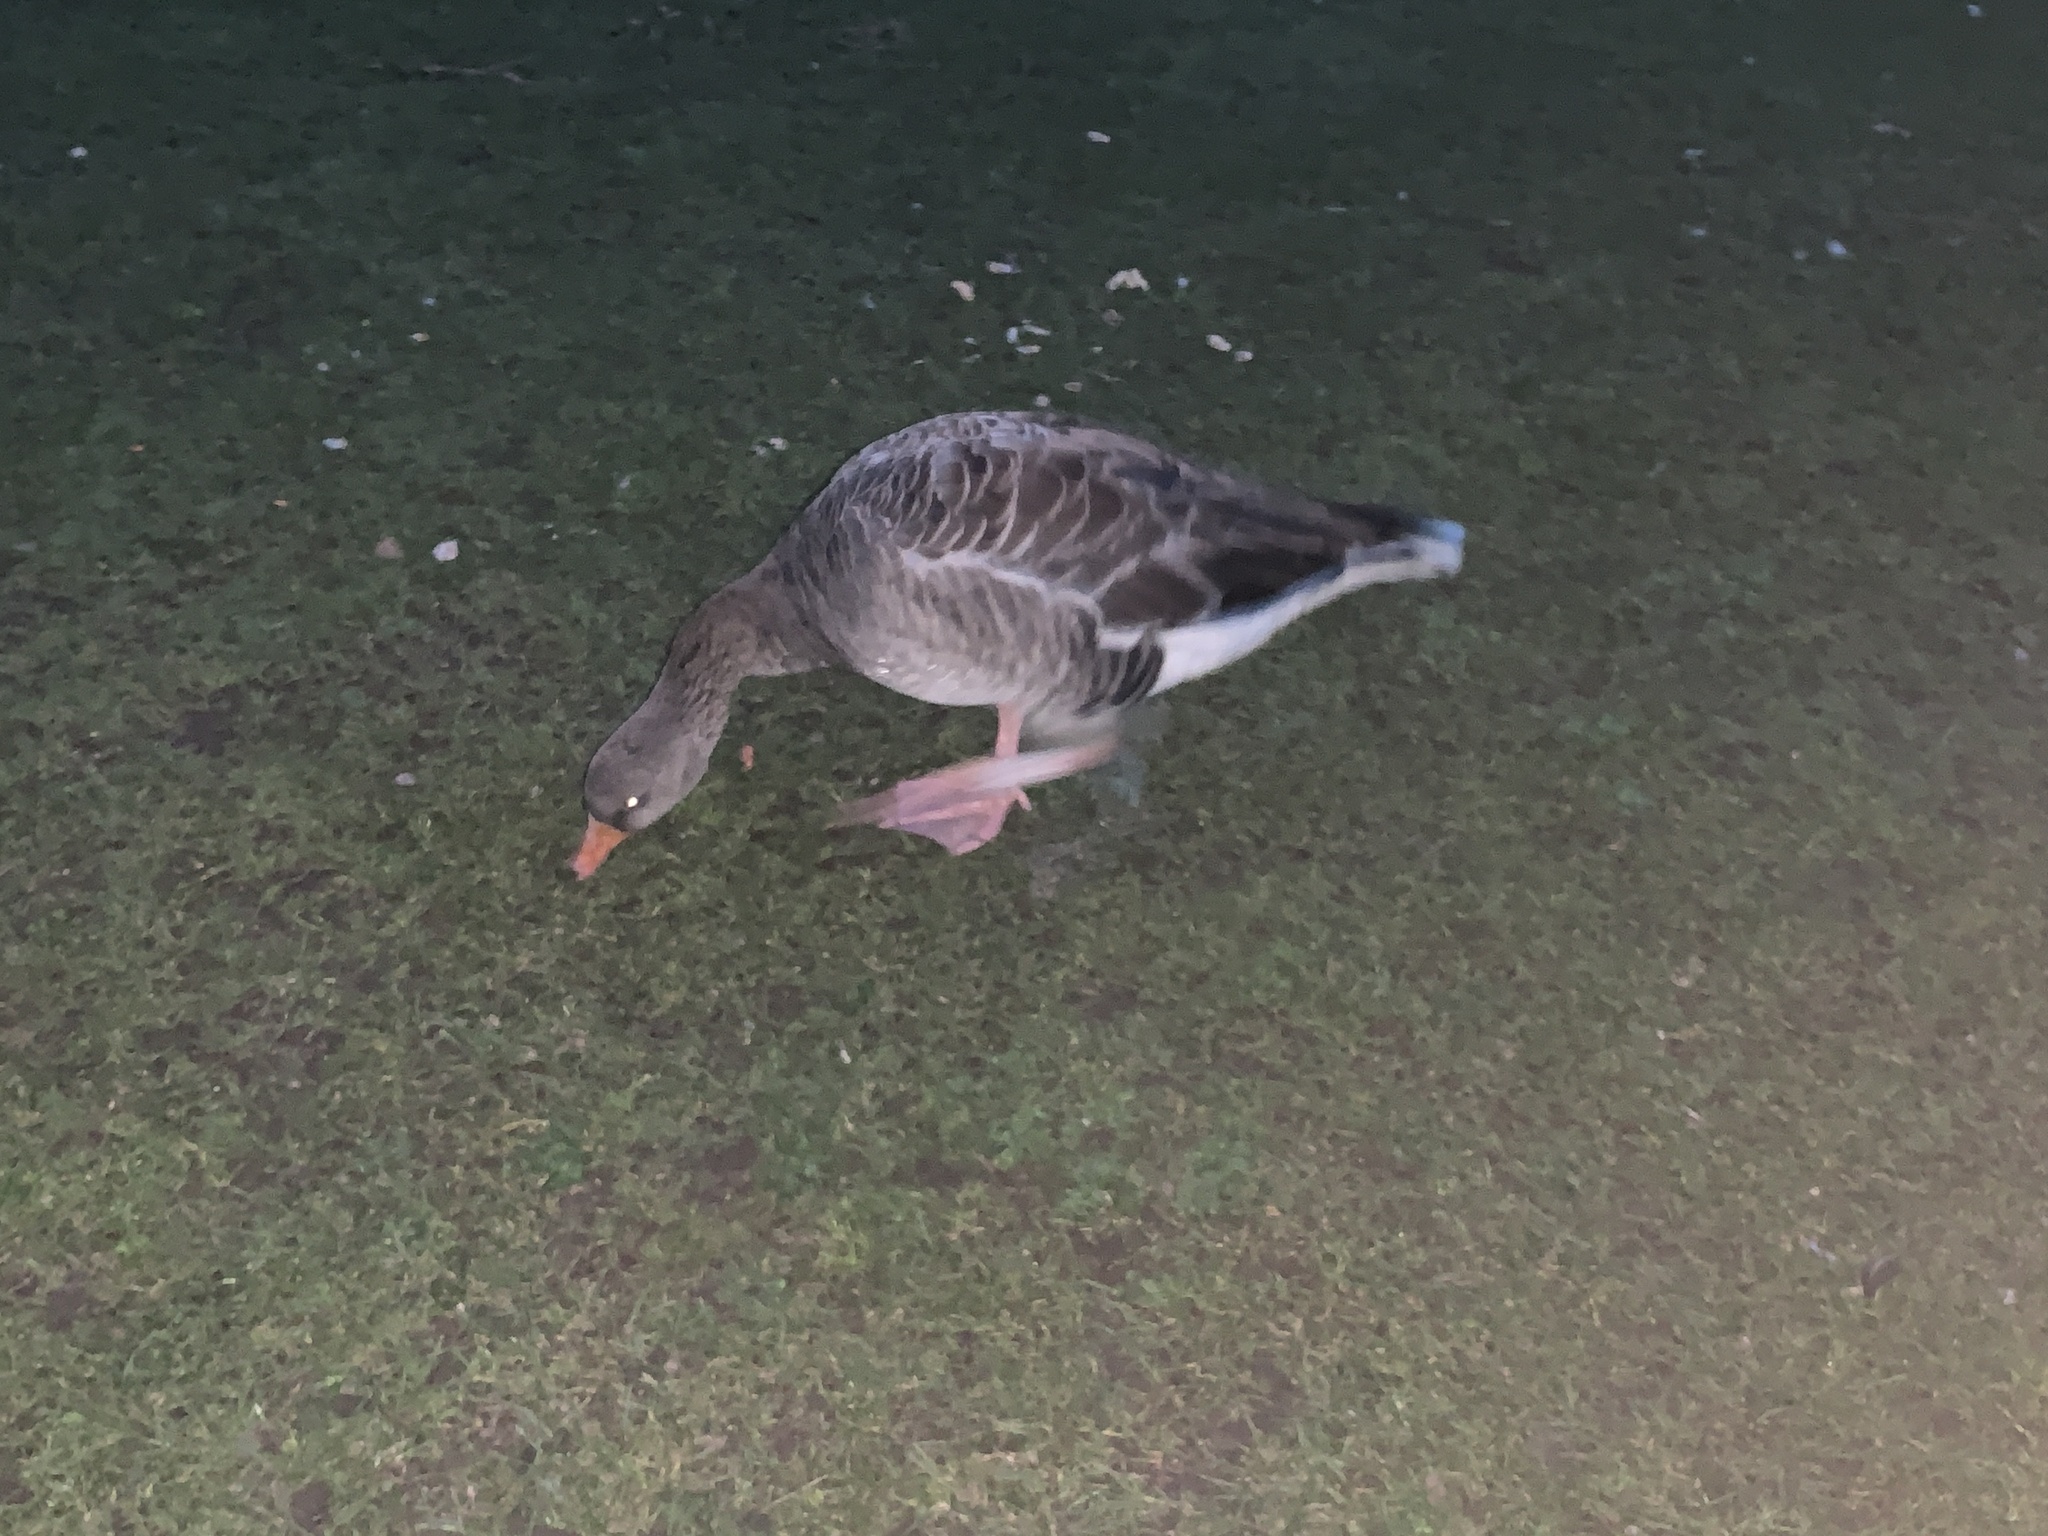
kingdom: Animalia
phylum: Chordata
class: Aves
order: Anseriformes
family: Anatidae
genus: Anser
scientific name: Anser anser
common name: Greylag goose
